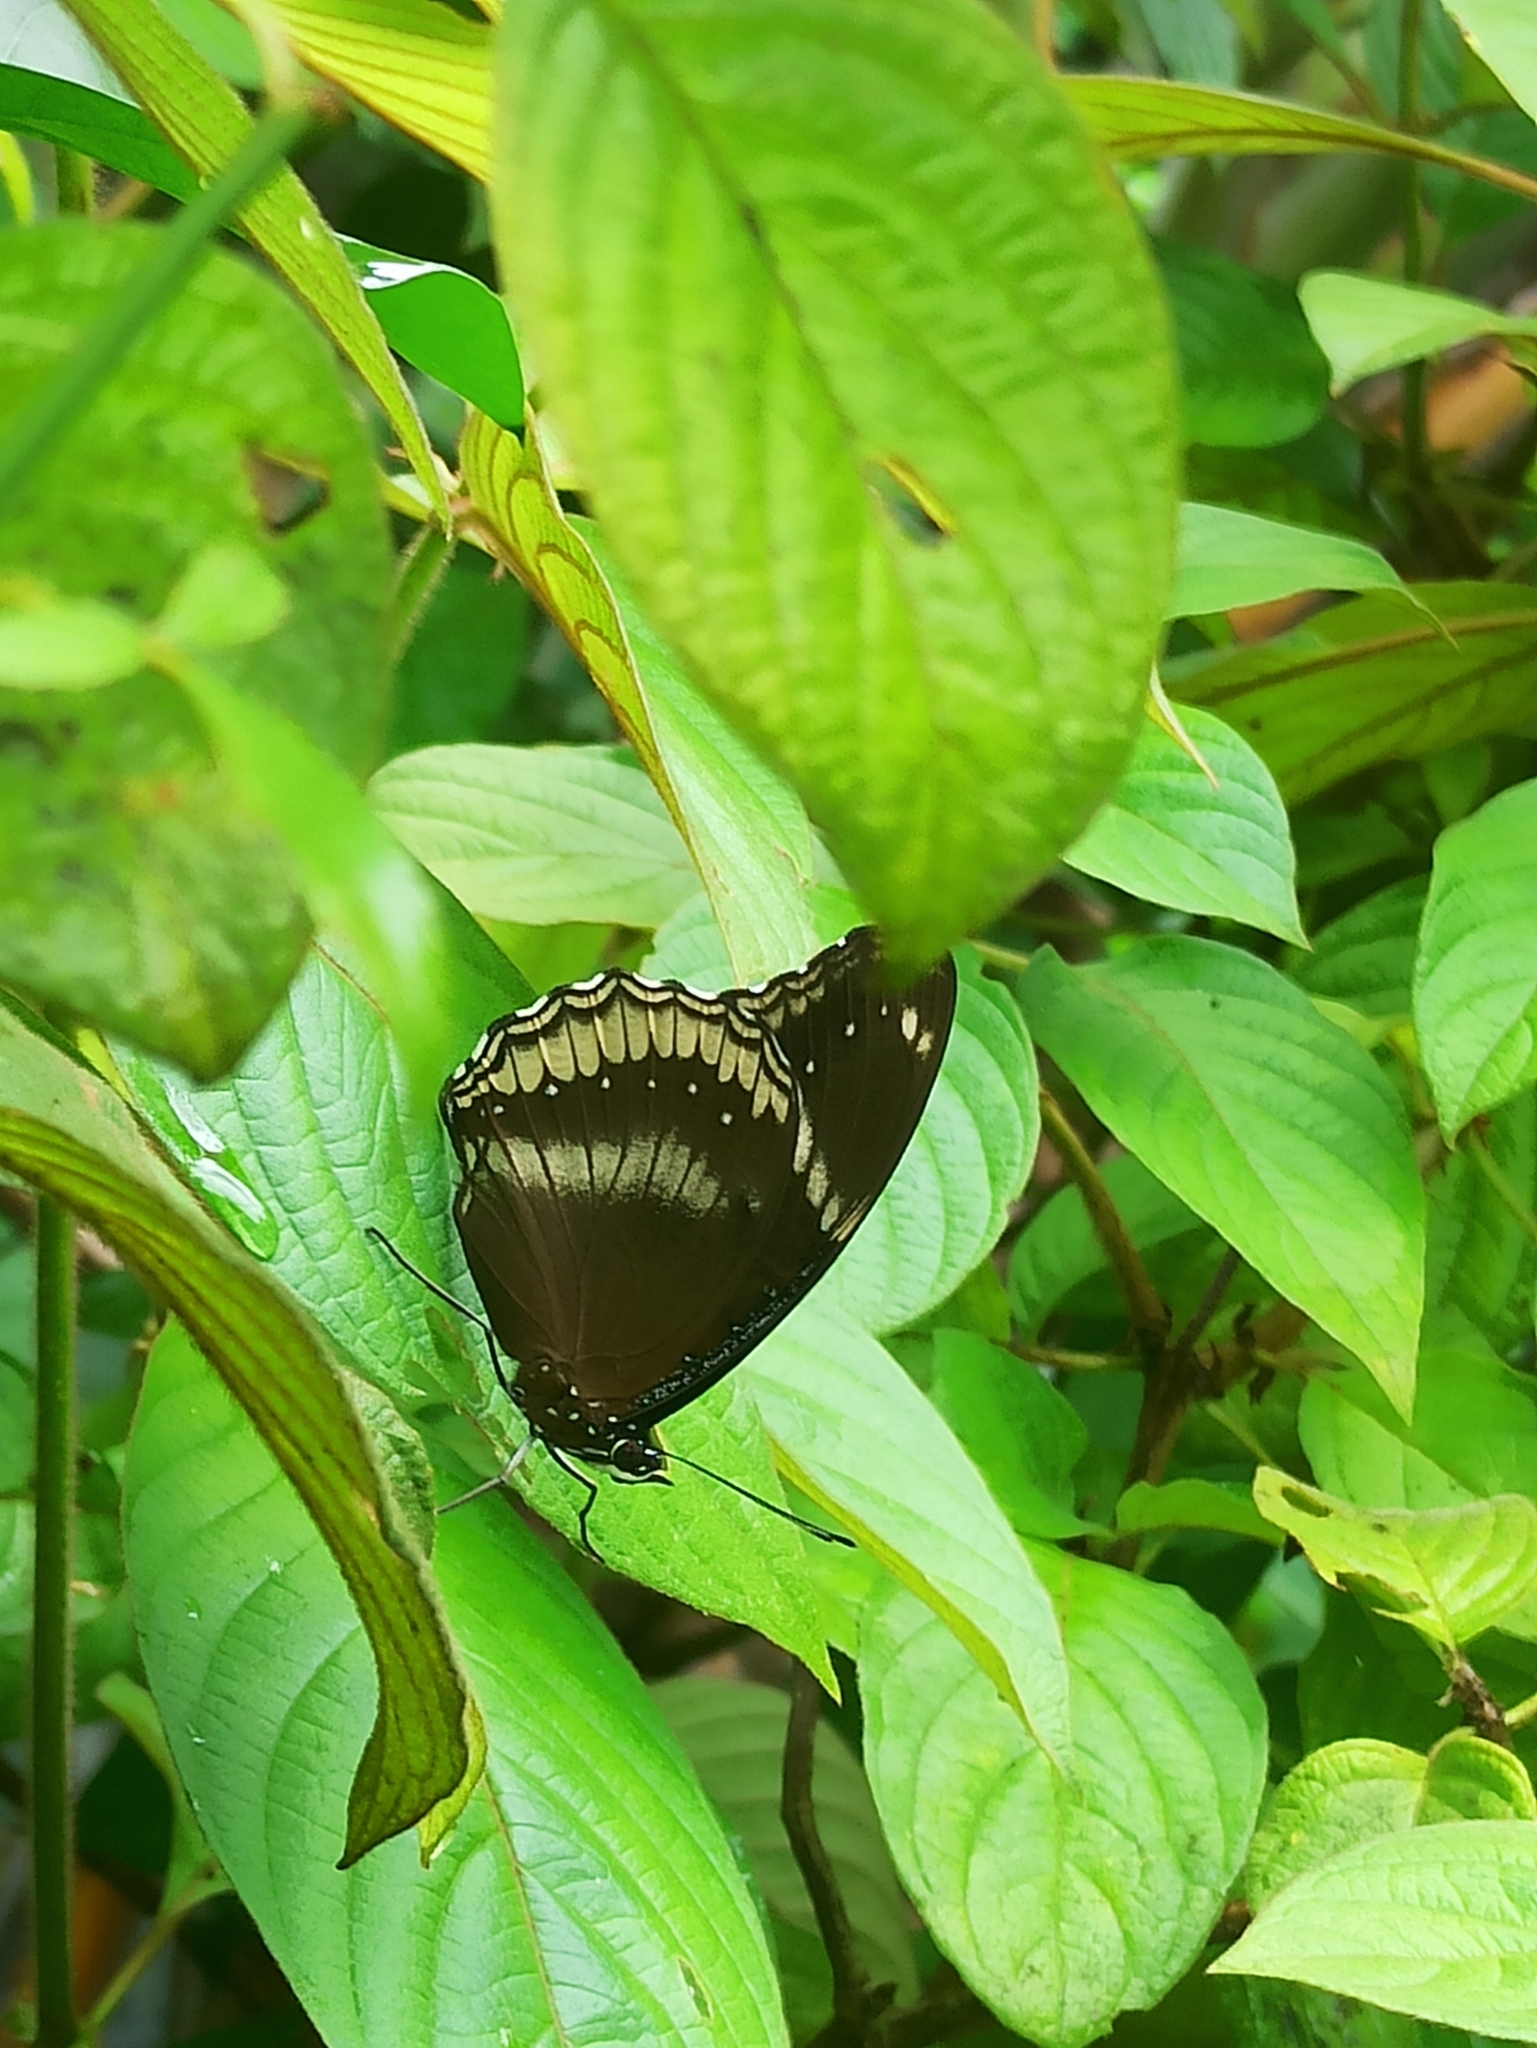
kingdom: Animalia
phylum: Arthropoda
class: Insecta
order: Lepidoptera
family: Nymphalidae
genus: Hypolimnas
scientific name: Hypolimnas bolina
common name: Great eggfly
